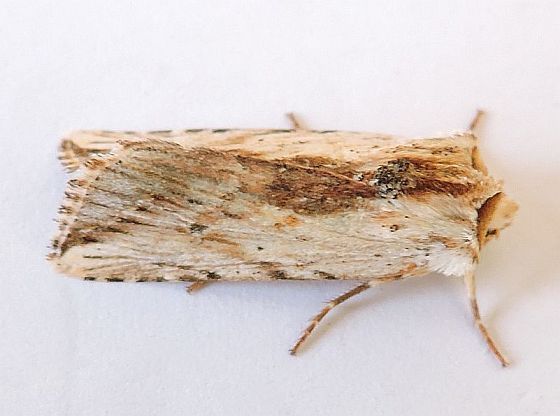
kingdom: Animalia
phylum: Arthropoda
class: Insecta
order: Lepidoptera
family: Noctuidae
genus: Eriopyga
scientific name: Eriopyga diplogramma
